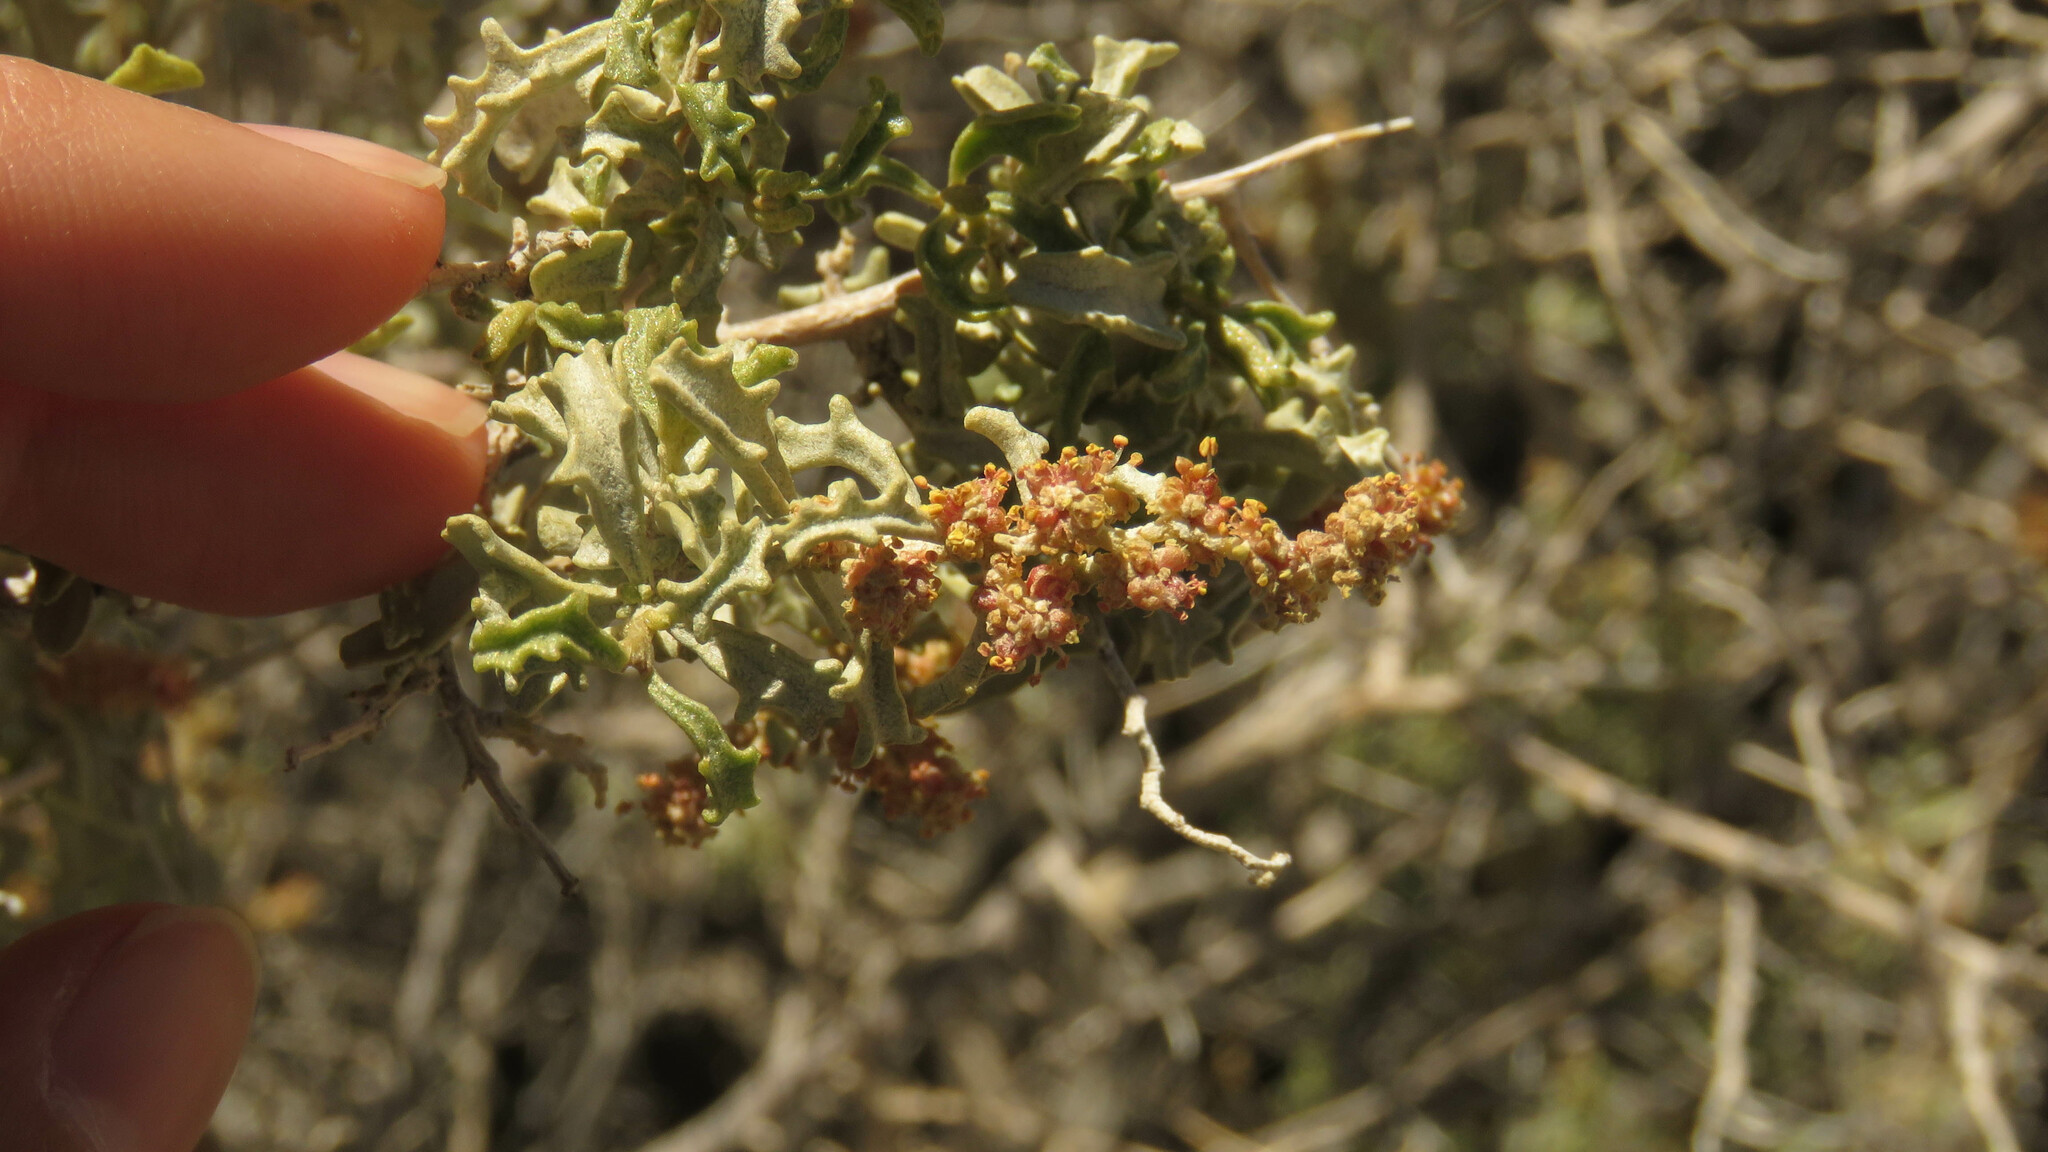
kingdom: Plantae
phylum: Tracheophyta
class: Magnoliopsida
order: Caryophyllales
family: Amaranthaceae
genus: Atriplex
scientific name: Atriplex lampa
